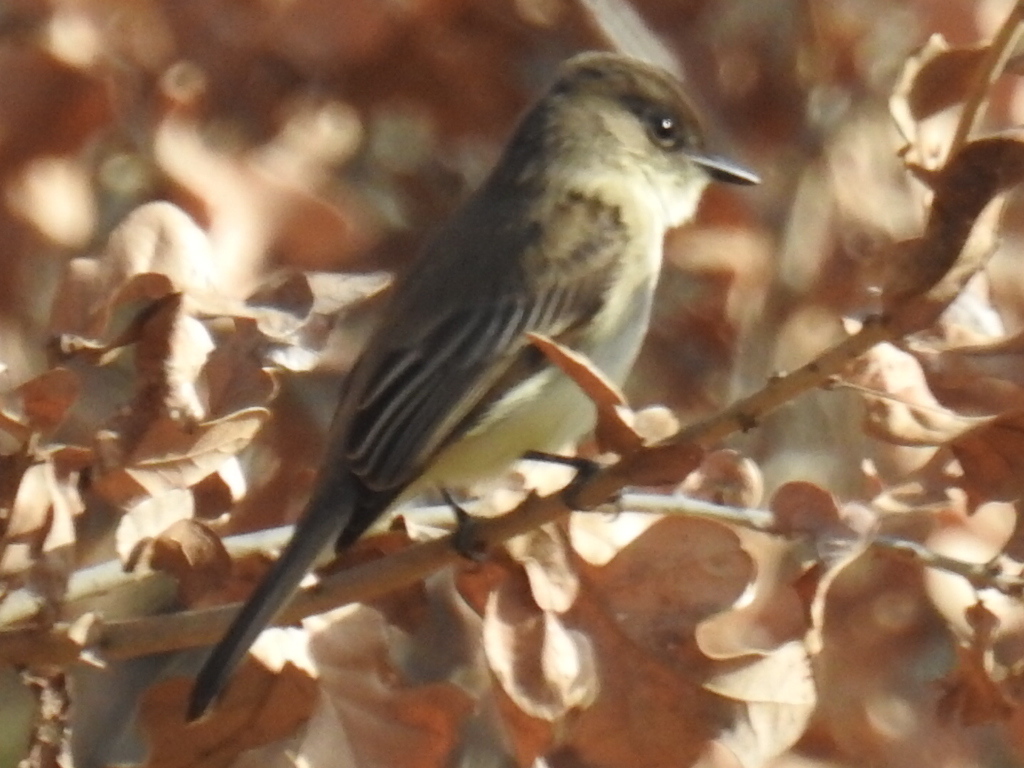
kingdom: Animalia
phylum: Chordata
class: Aves
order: Passeriformes
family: Tyrannidae
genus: Sayornis
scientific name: Sayornis phoebe
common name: Eastern phoebe
